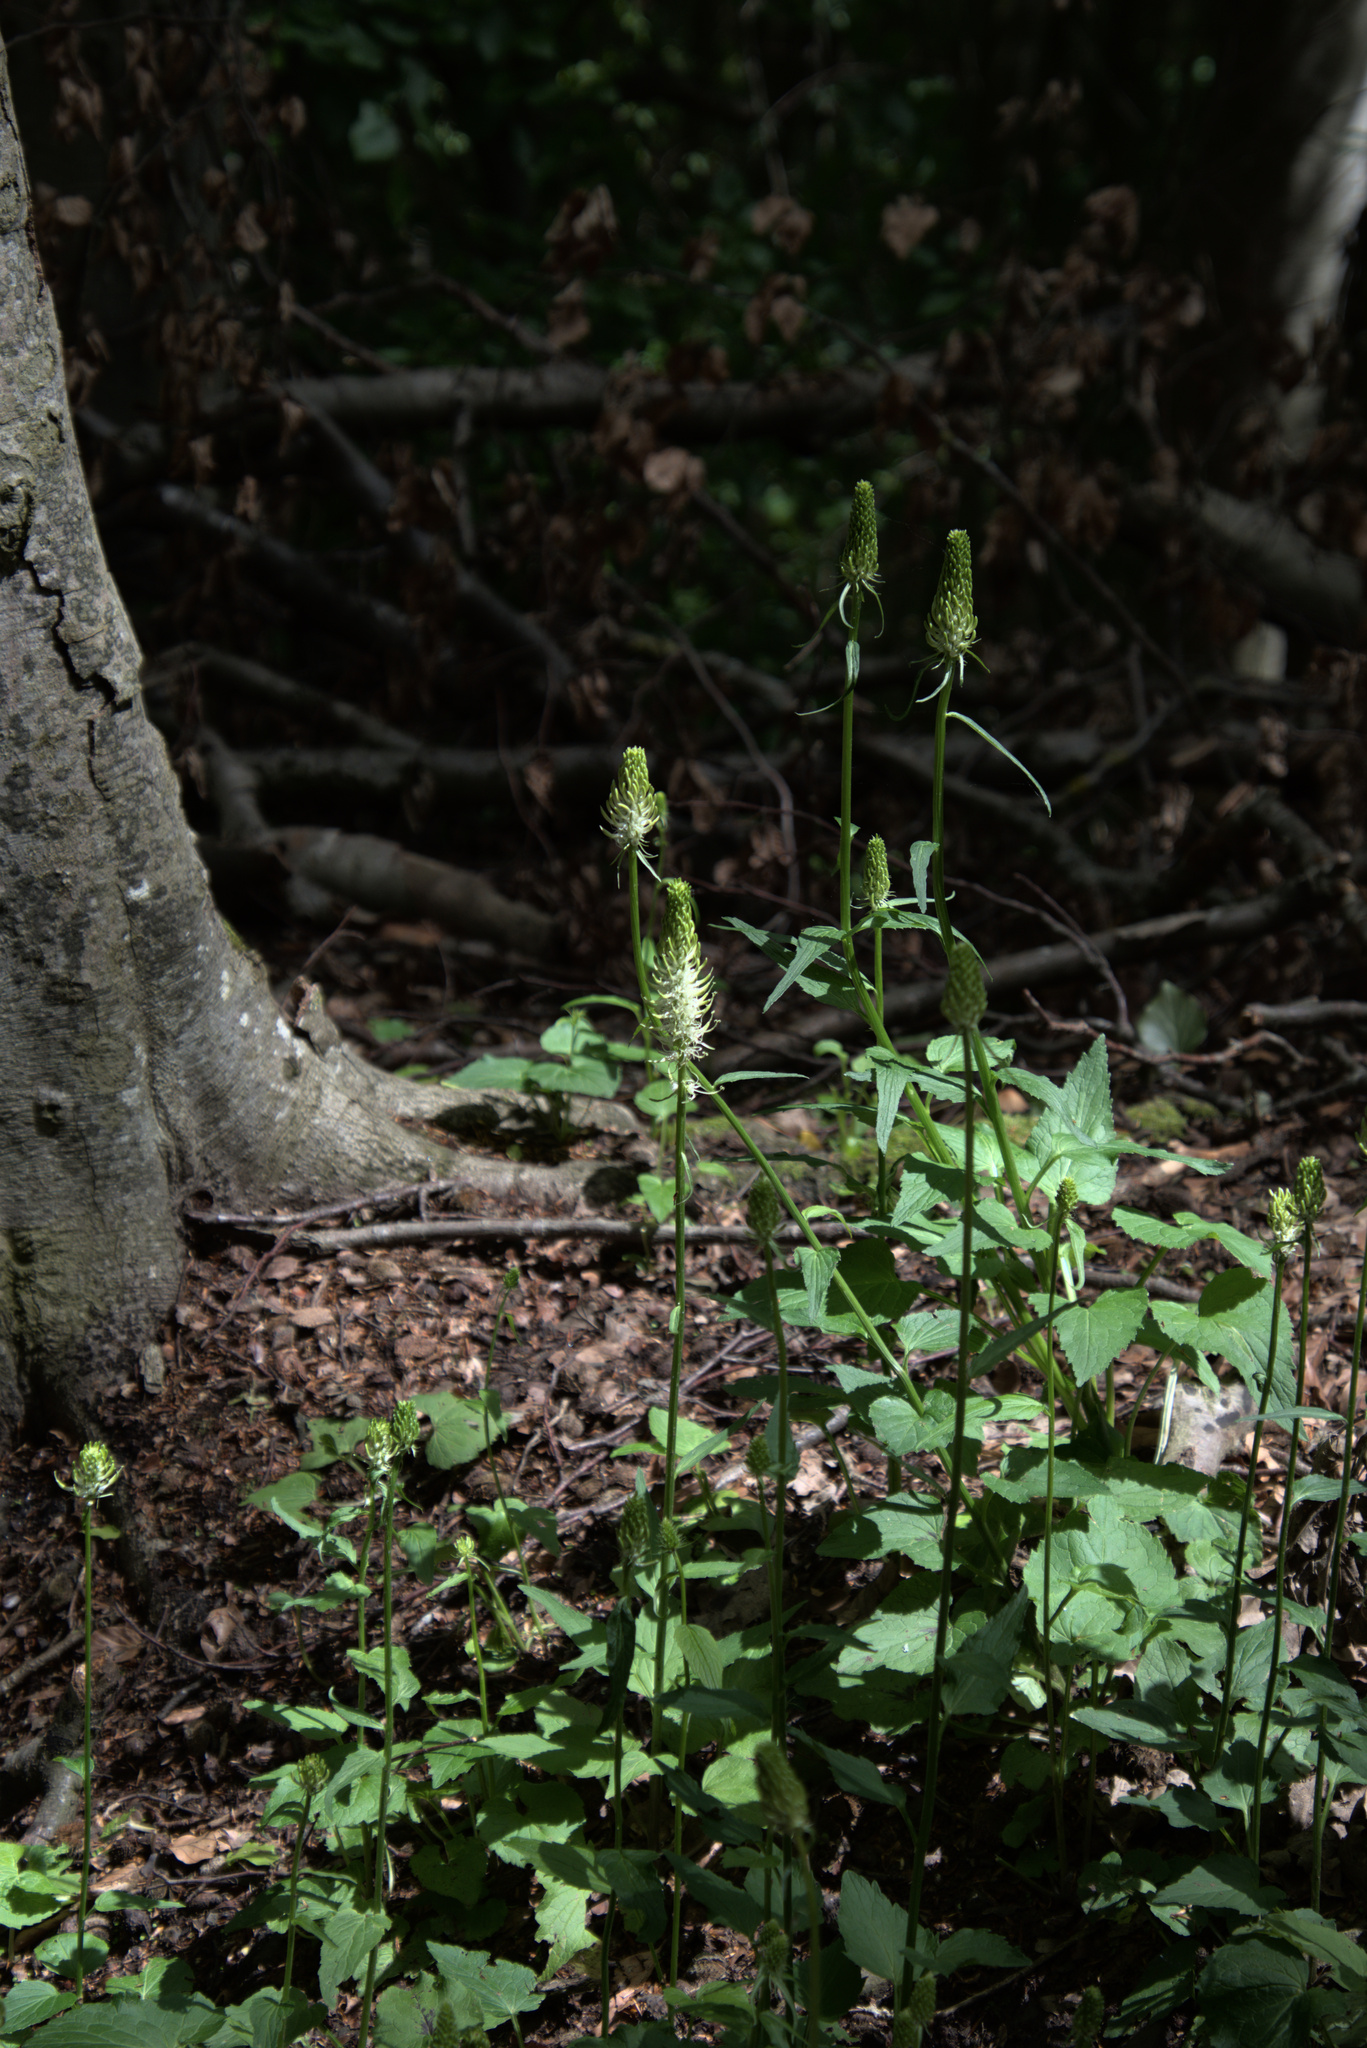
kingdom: Plantae
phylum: Tracheophyta
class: Magnoliopsida
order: Asterales
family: Campanulaceae
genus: Phyteuma
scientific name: Phyteuma spicatum
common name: Spiked rampion
